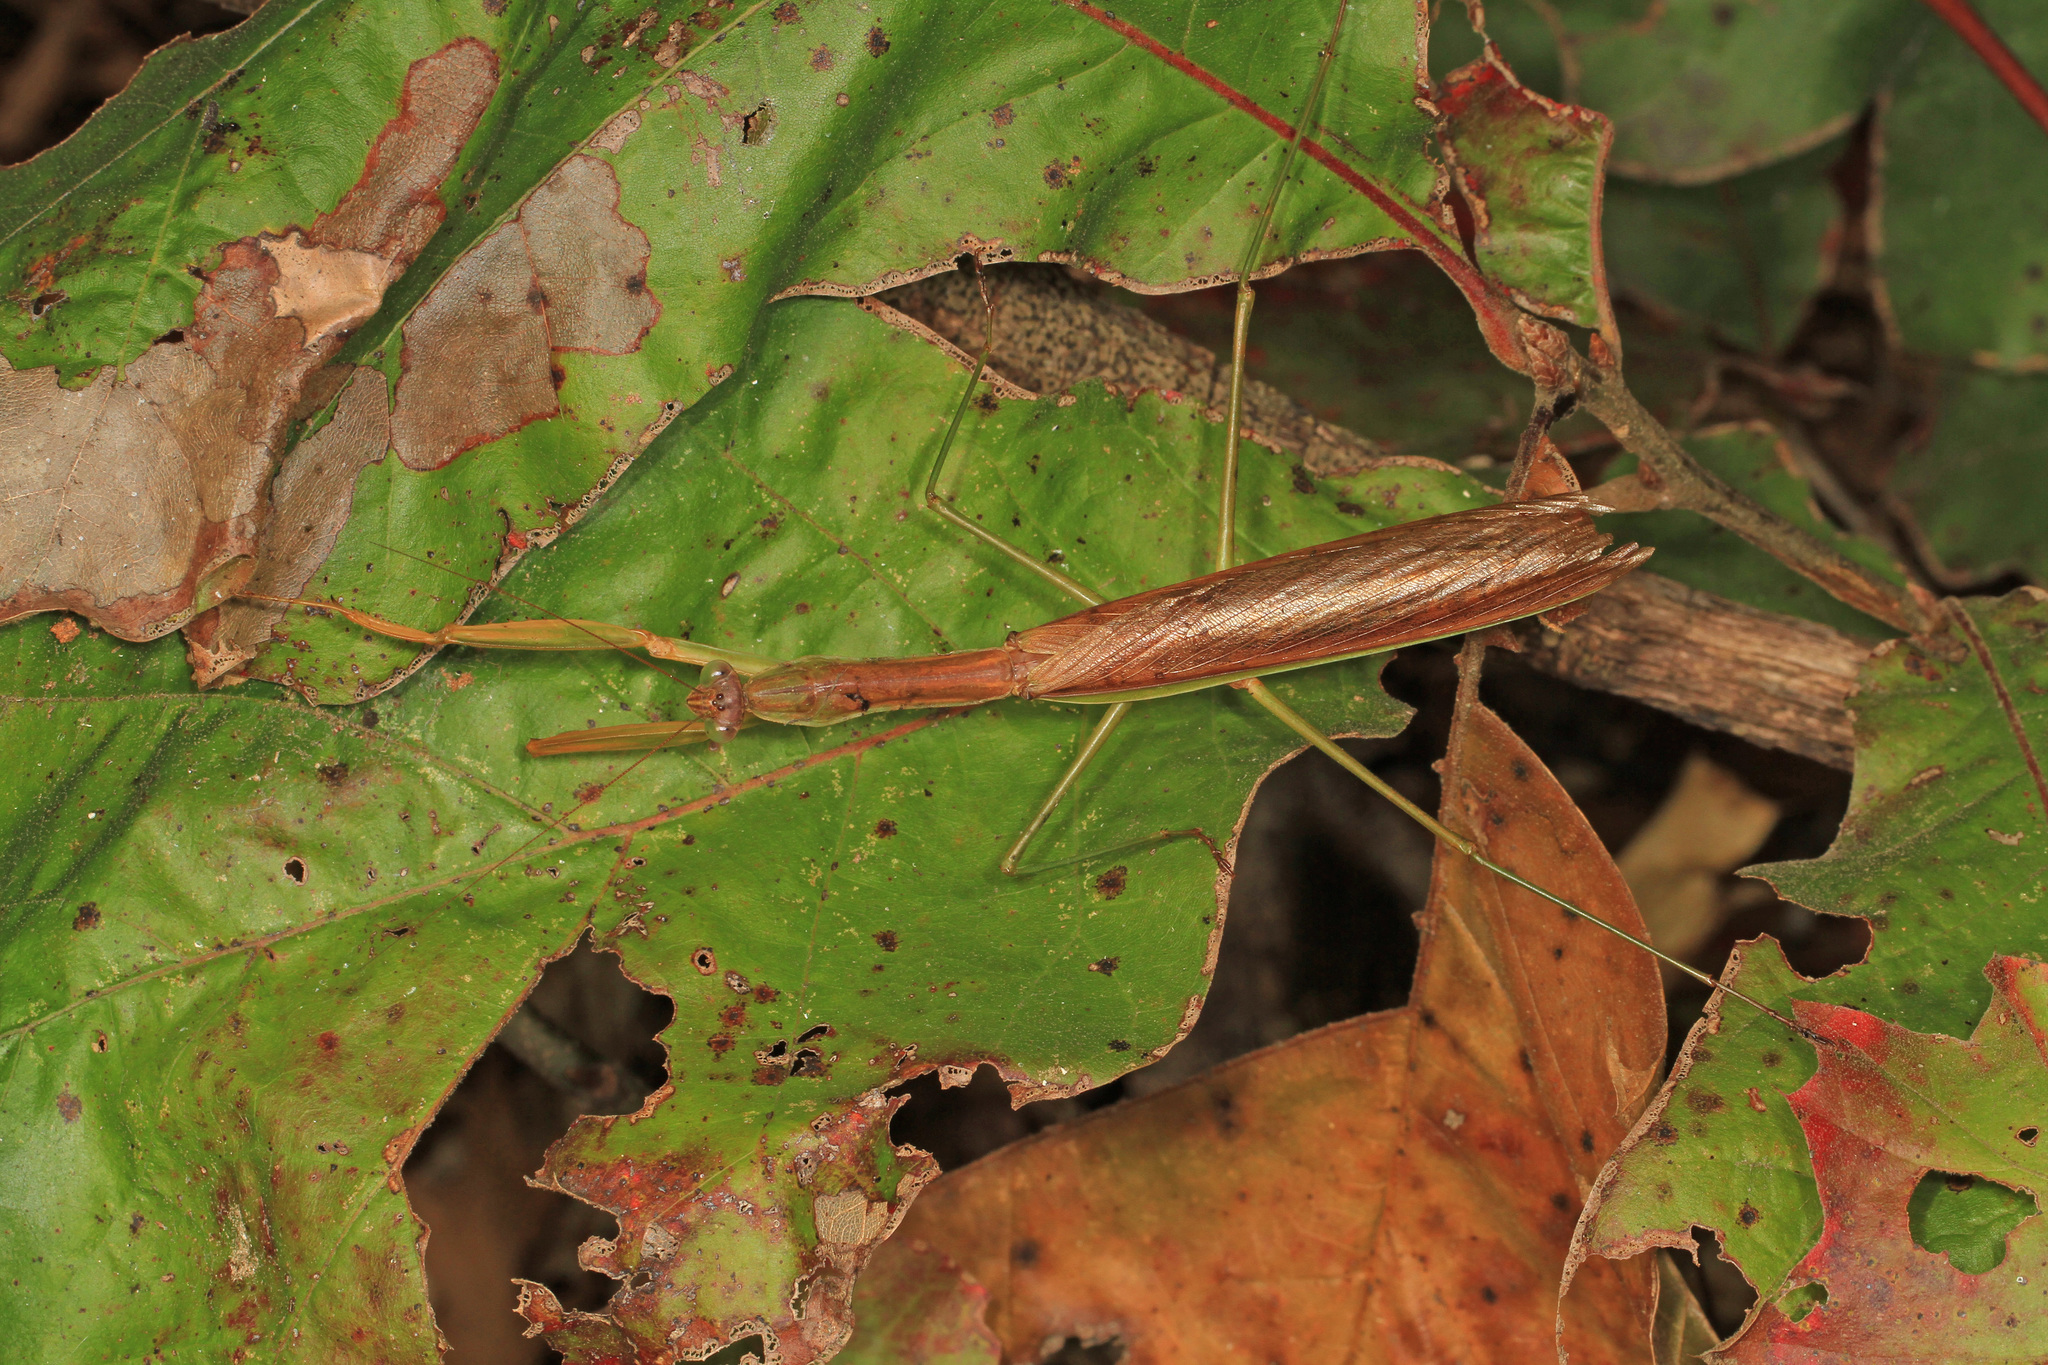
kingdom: Animalia
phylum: Arthropoda
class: Insecta
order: Mantodea
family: Mantidae
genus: Tenodera
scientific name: Tenodera sinensis
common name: Chinese mantis
